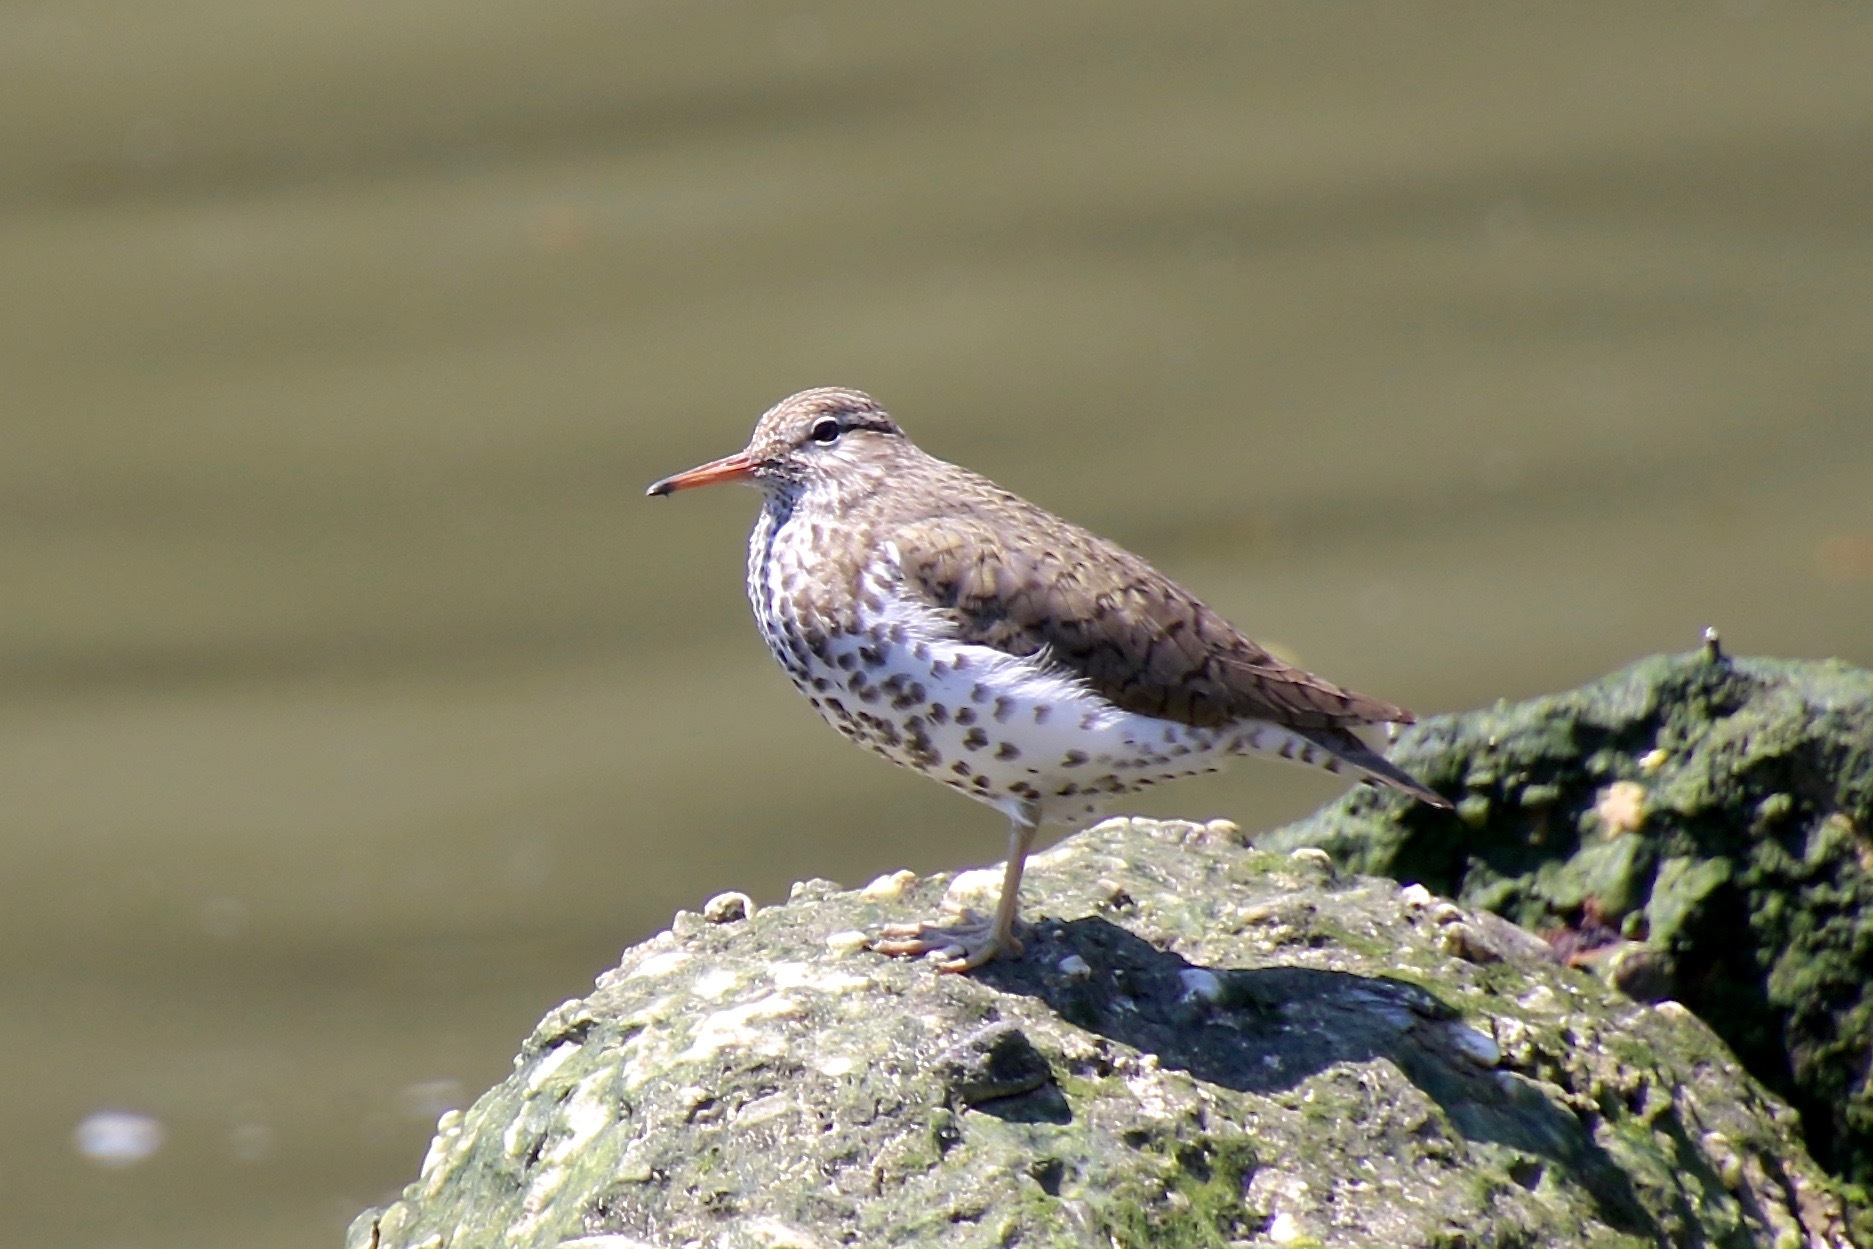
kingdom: Animalia
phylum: Chordata
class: Aves
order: Charadriiformes
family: Scolopacidae
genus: Actitis
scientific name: Actitis macularius
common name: Spotted sandpiper
